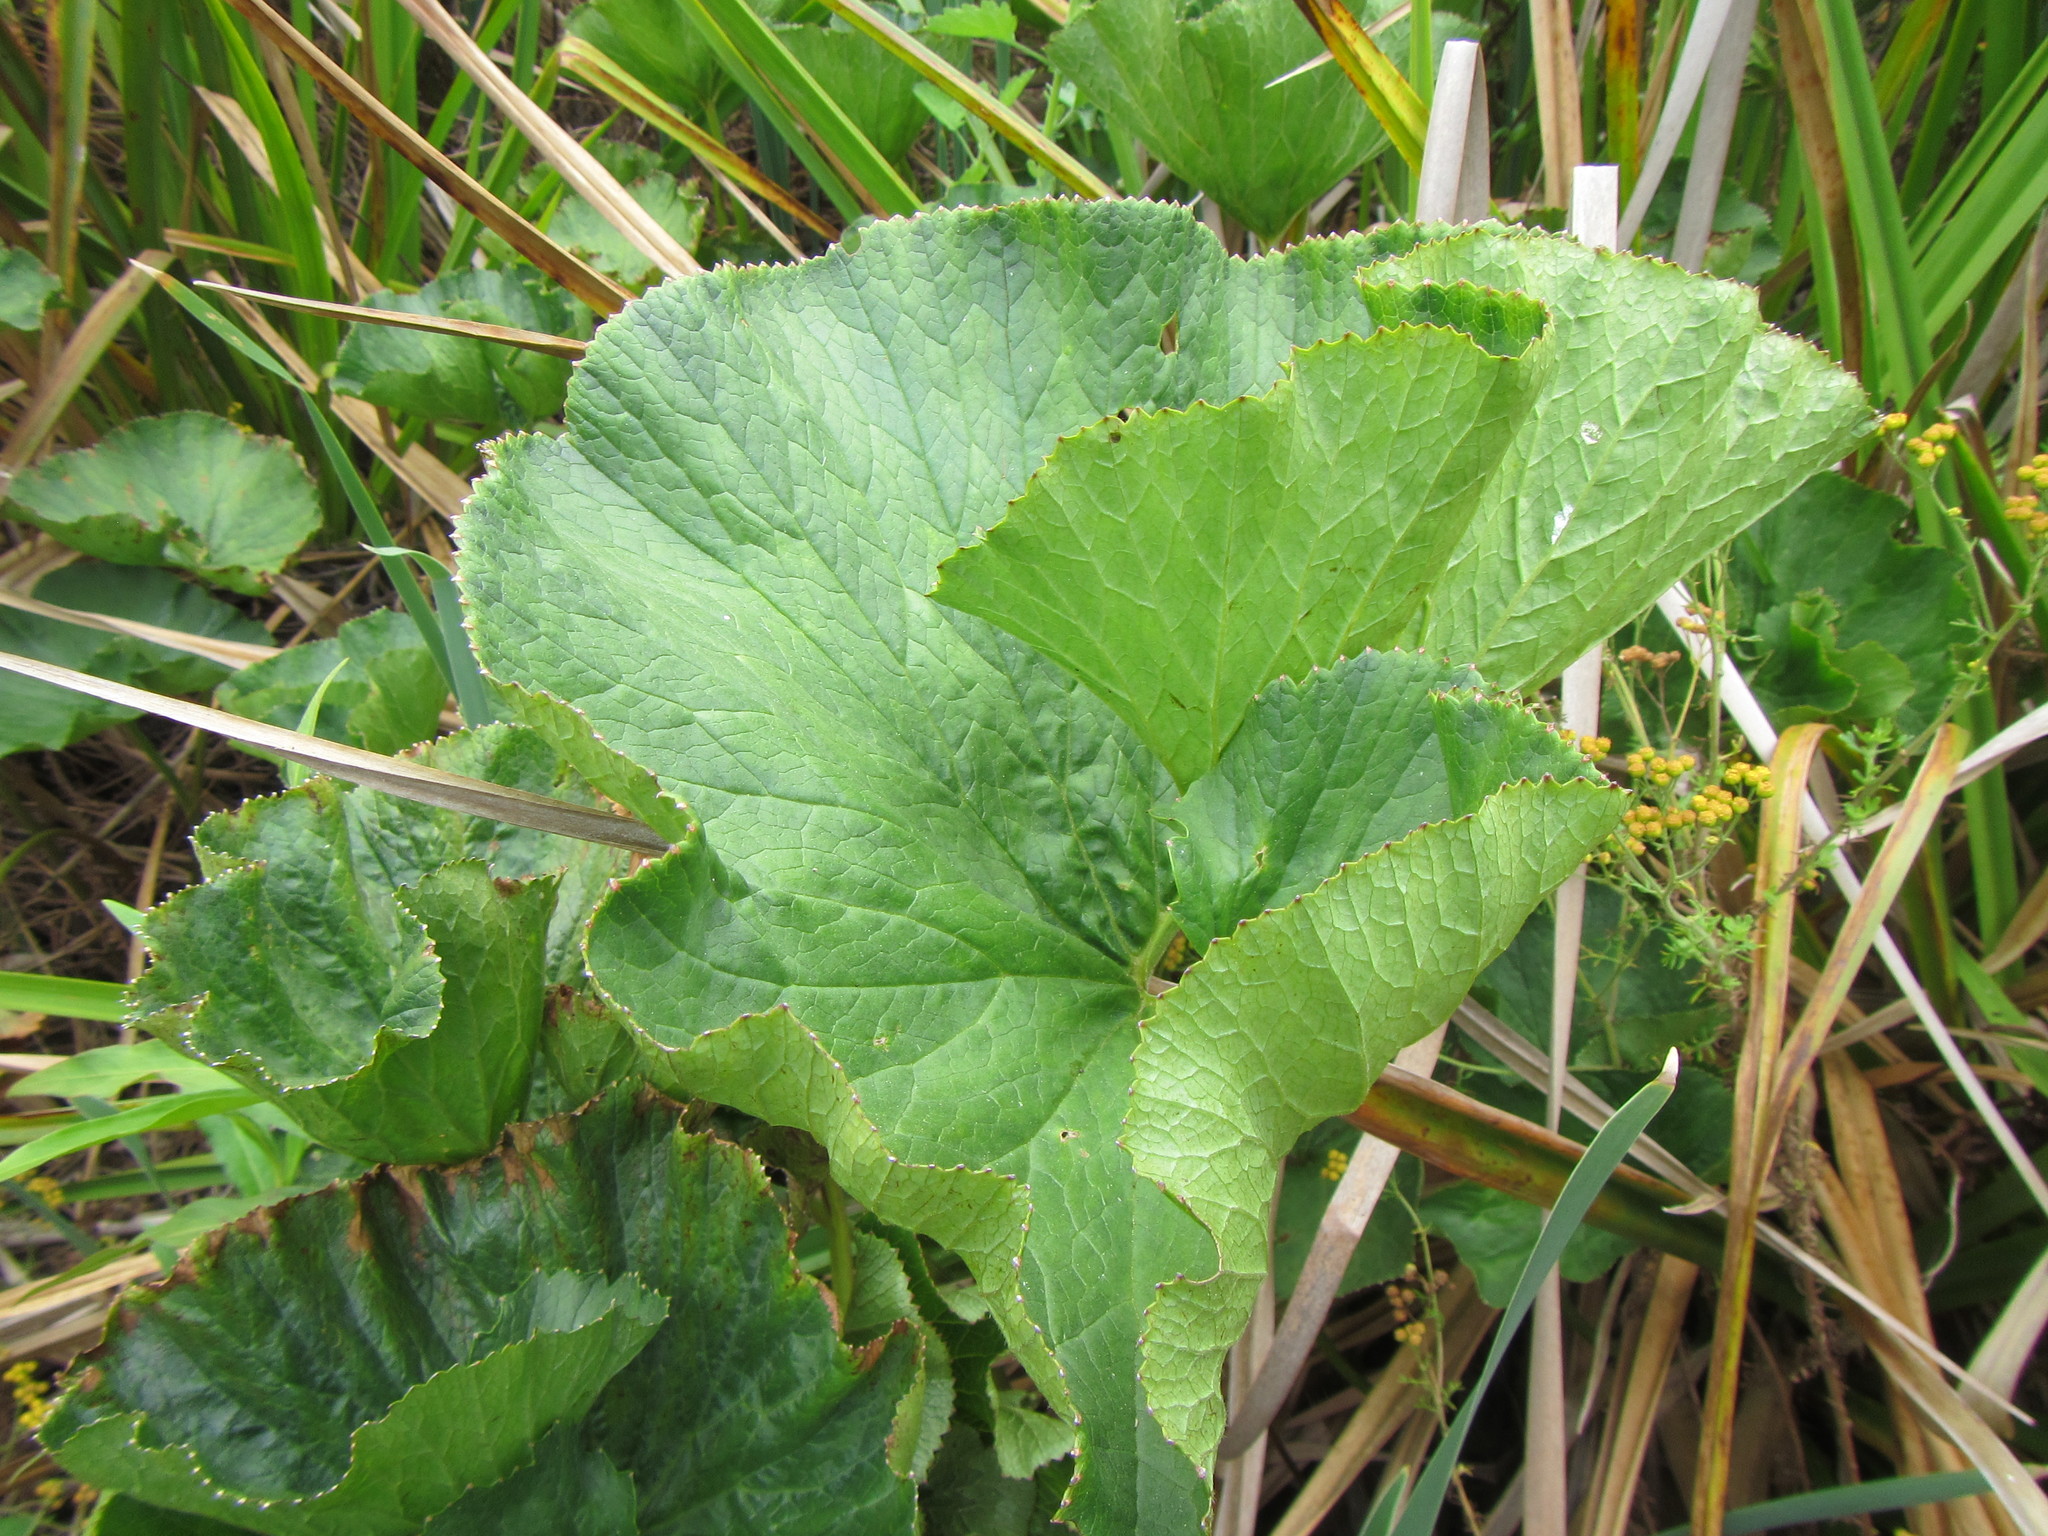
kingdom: Plantae
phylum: Tracheophyta
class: Magnoliopsida
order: Gunnerales
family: Gunneraceae
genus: Gunnera
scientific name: Gunnera perpensa
